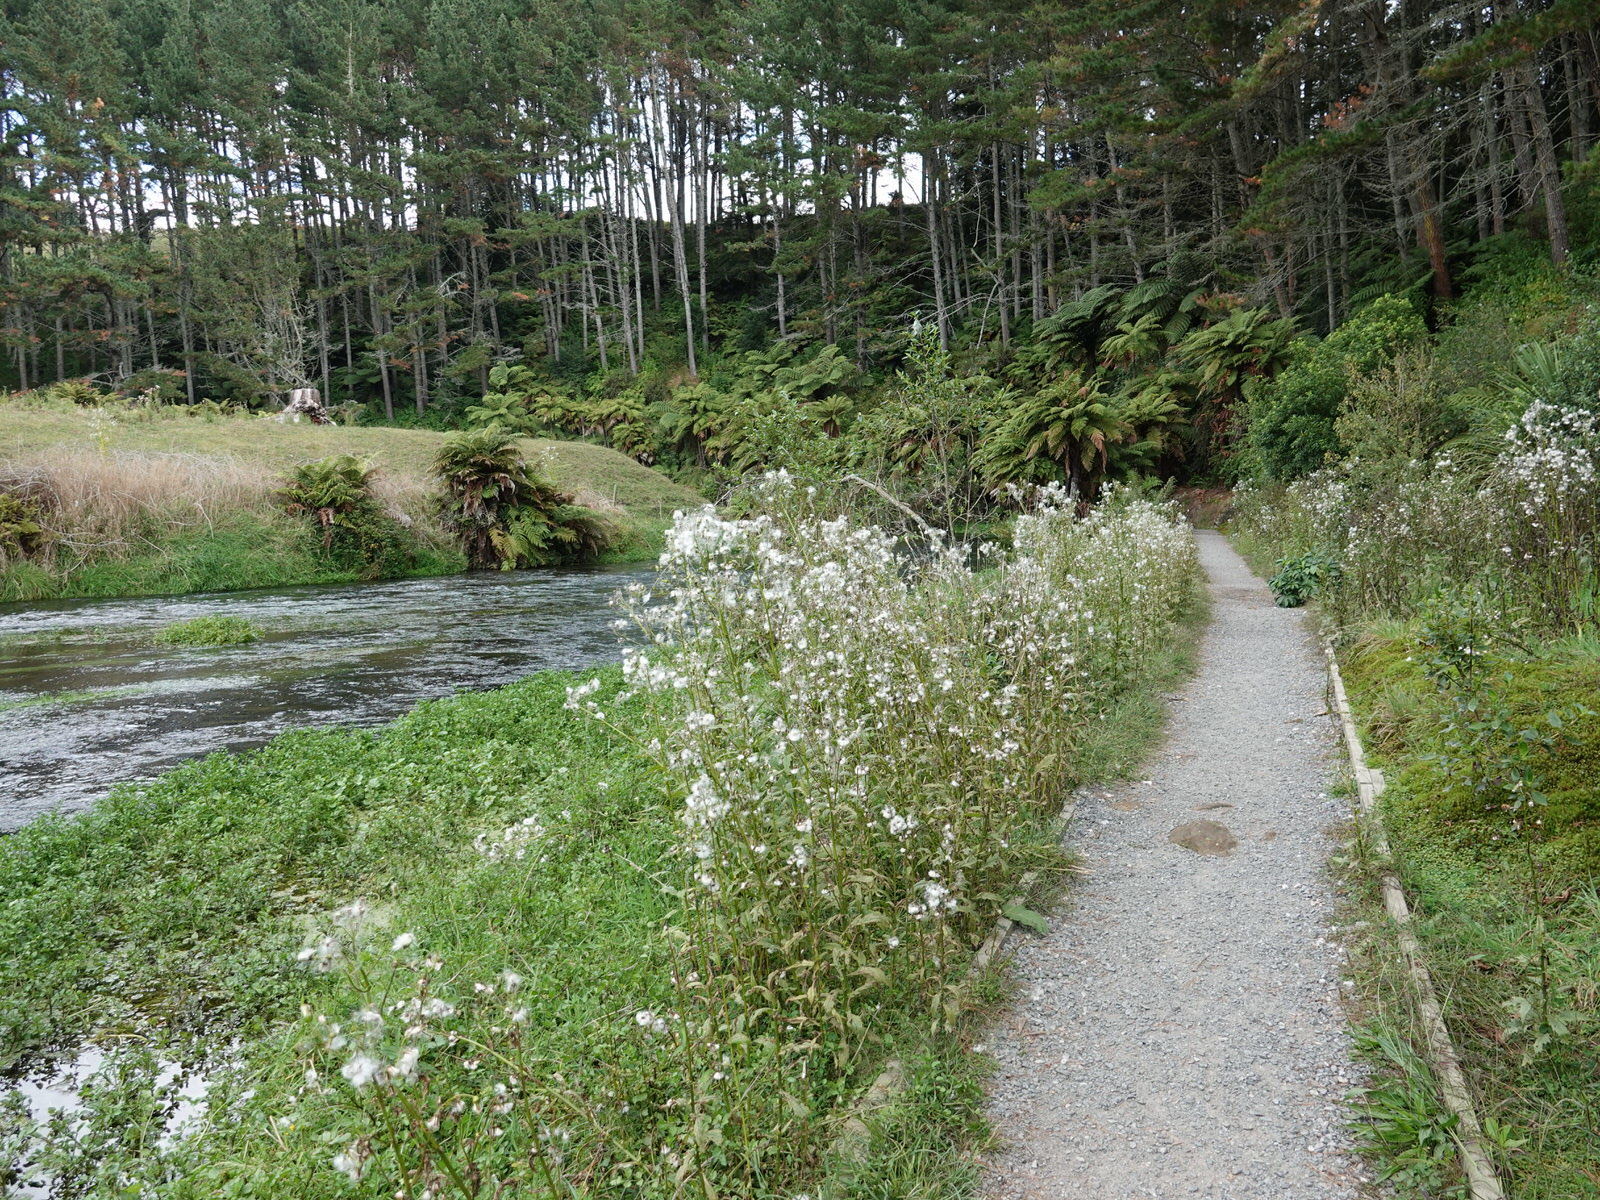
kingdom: Plantae
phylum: Tracheophyta
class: Magnoliopsida
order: Asterales
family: Asteraceae
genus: Erechtites
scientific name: Erechtites hieraciifolius
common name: American burnweed
